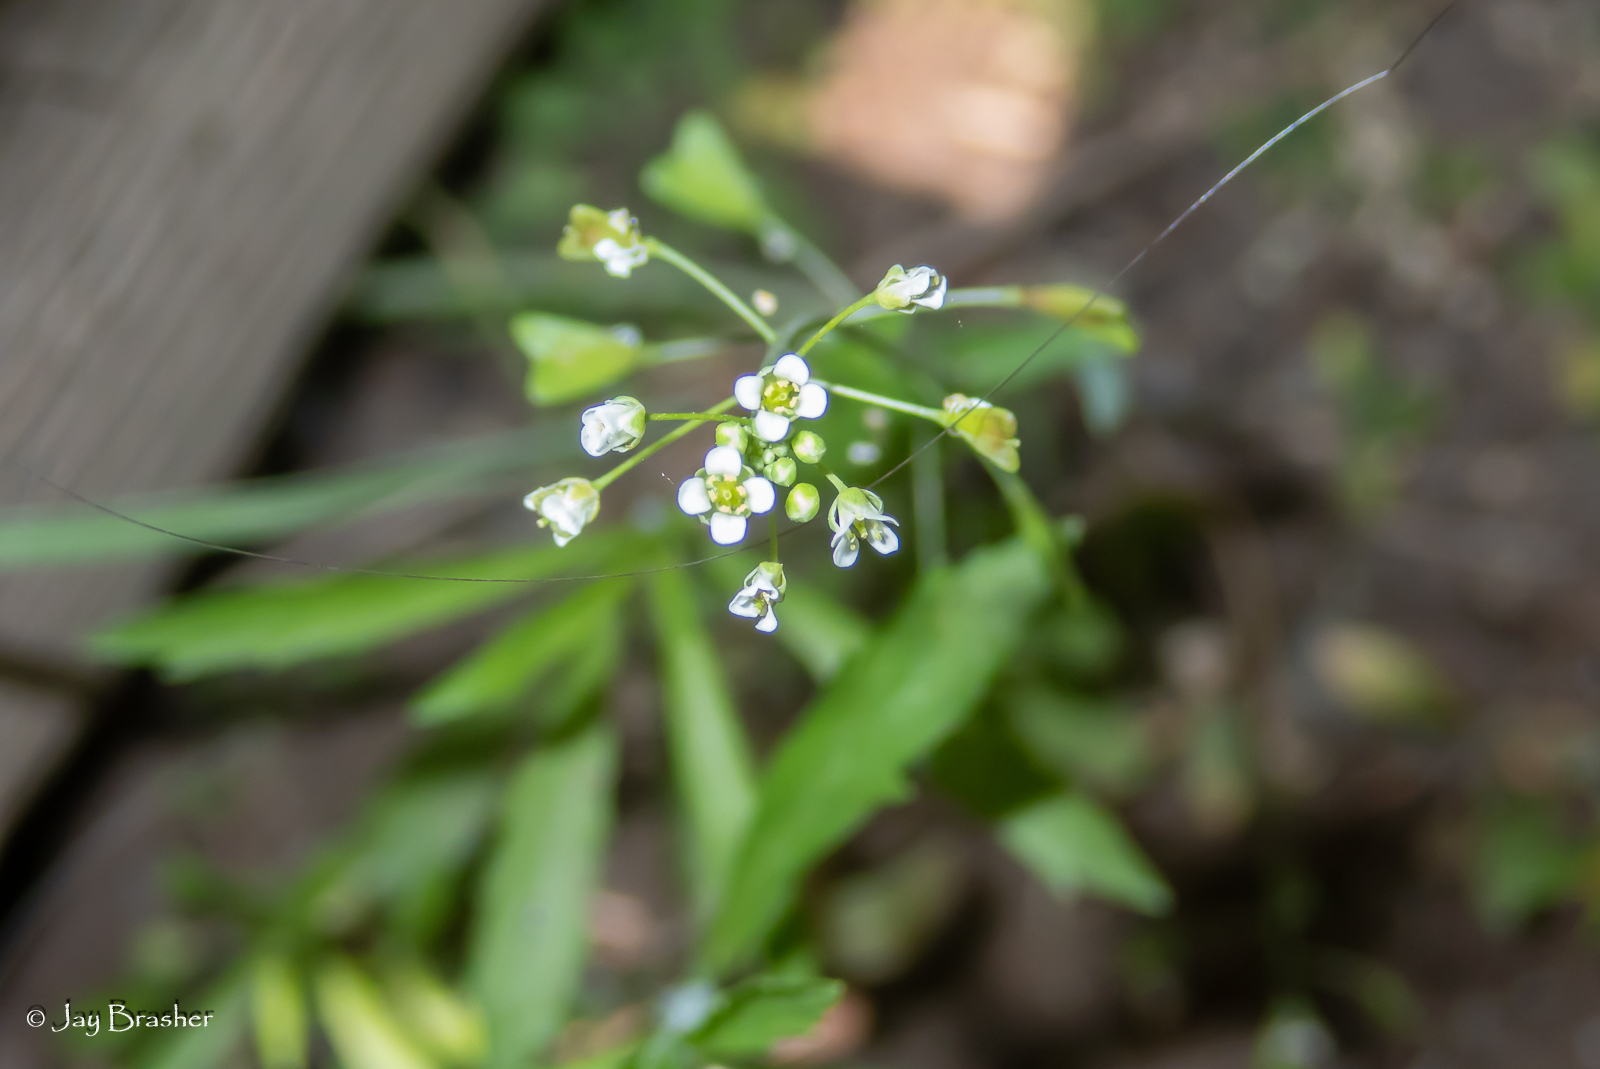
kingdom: Plantae
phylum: Tracheophyta
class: Magnoliopsida
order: Brassicales
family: Brassicaceae
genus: Capsella
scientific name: Capsella bursa-pastoris
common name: Shepherd's purse
